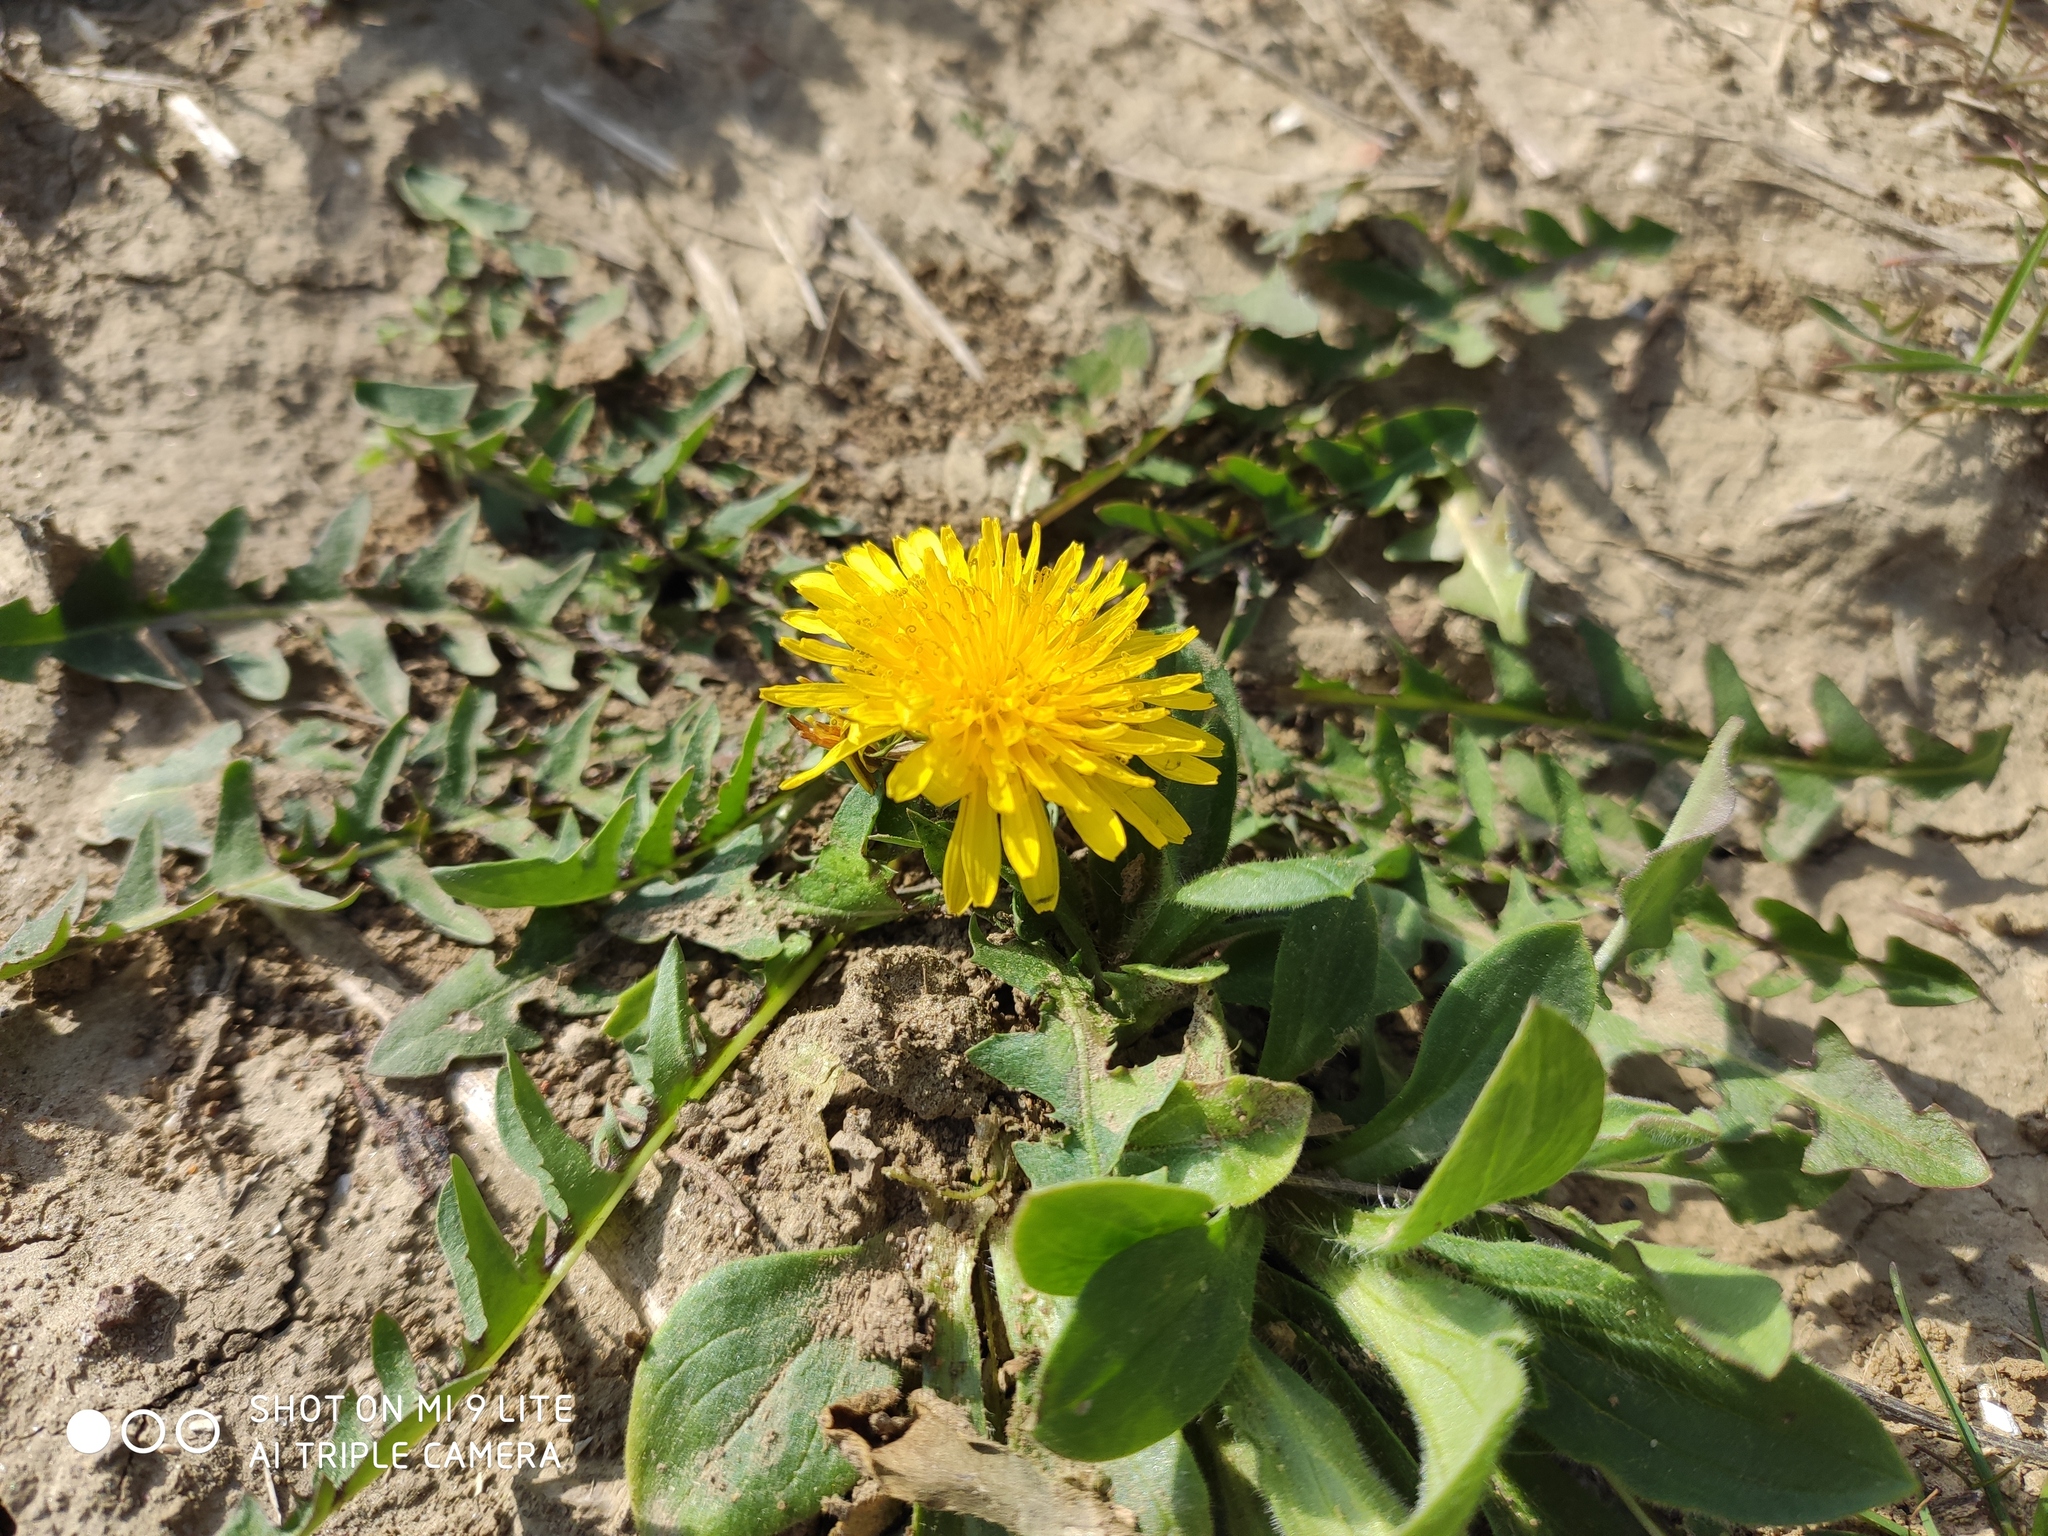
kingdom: Plantae
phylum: Tracheophyta
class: Magnoliopsida
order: Asterales
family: Asteraceae
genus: Taraxacum
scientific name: Taraxacum officinale
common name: Common dandelion
